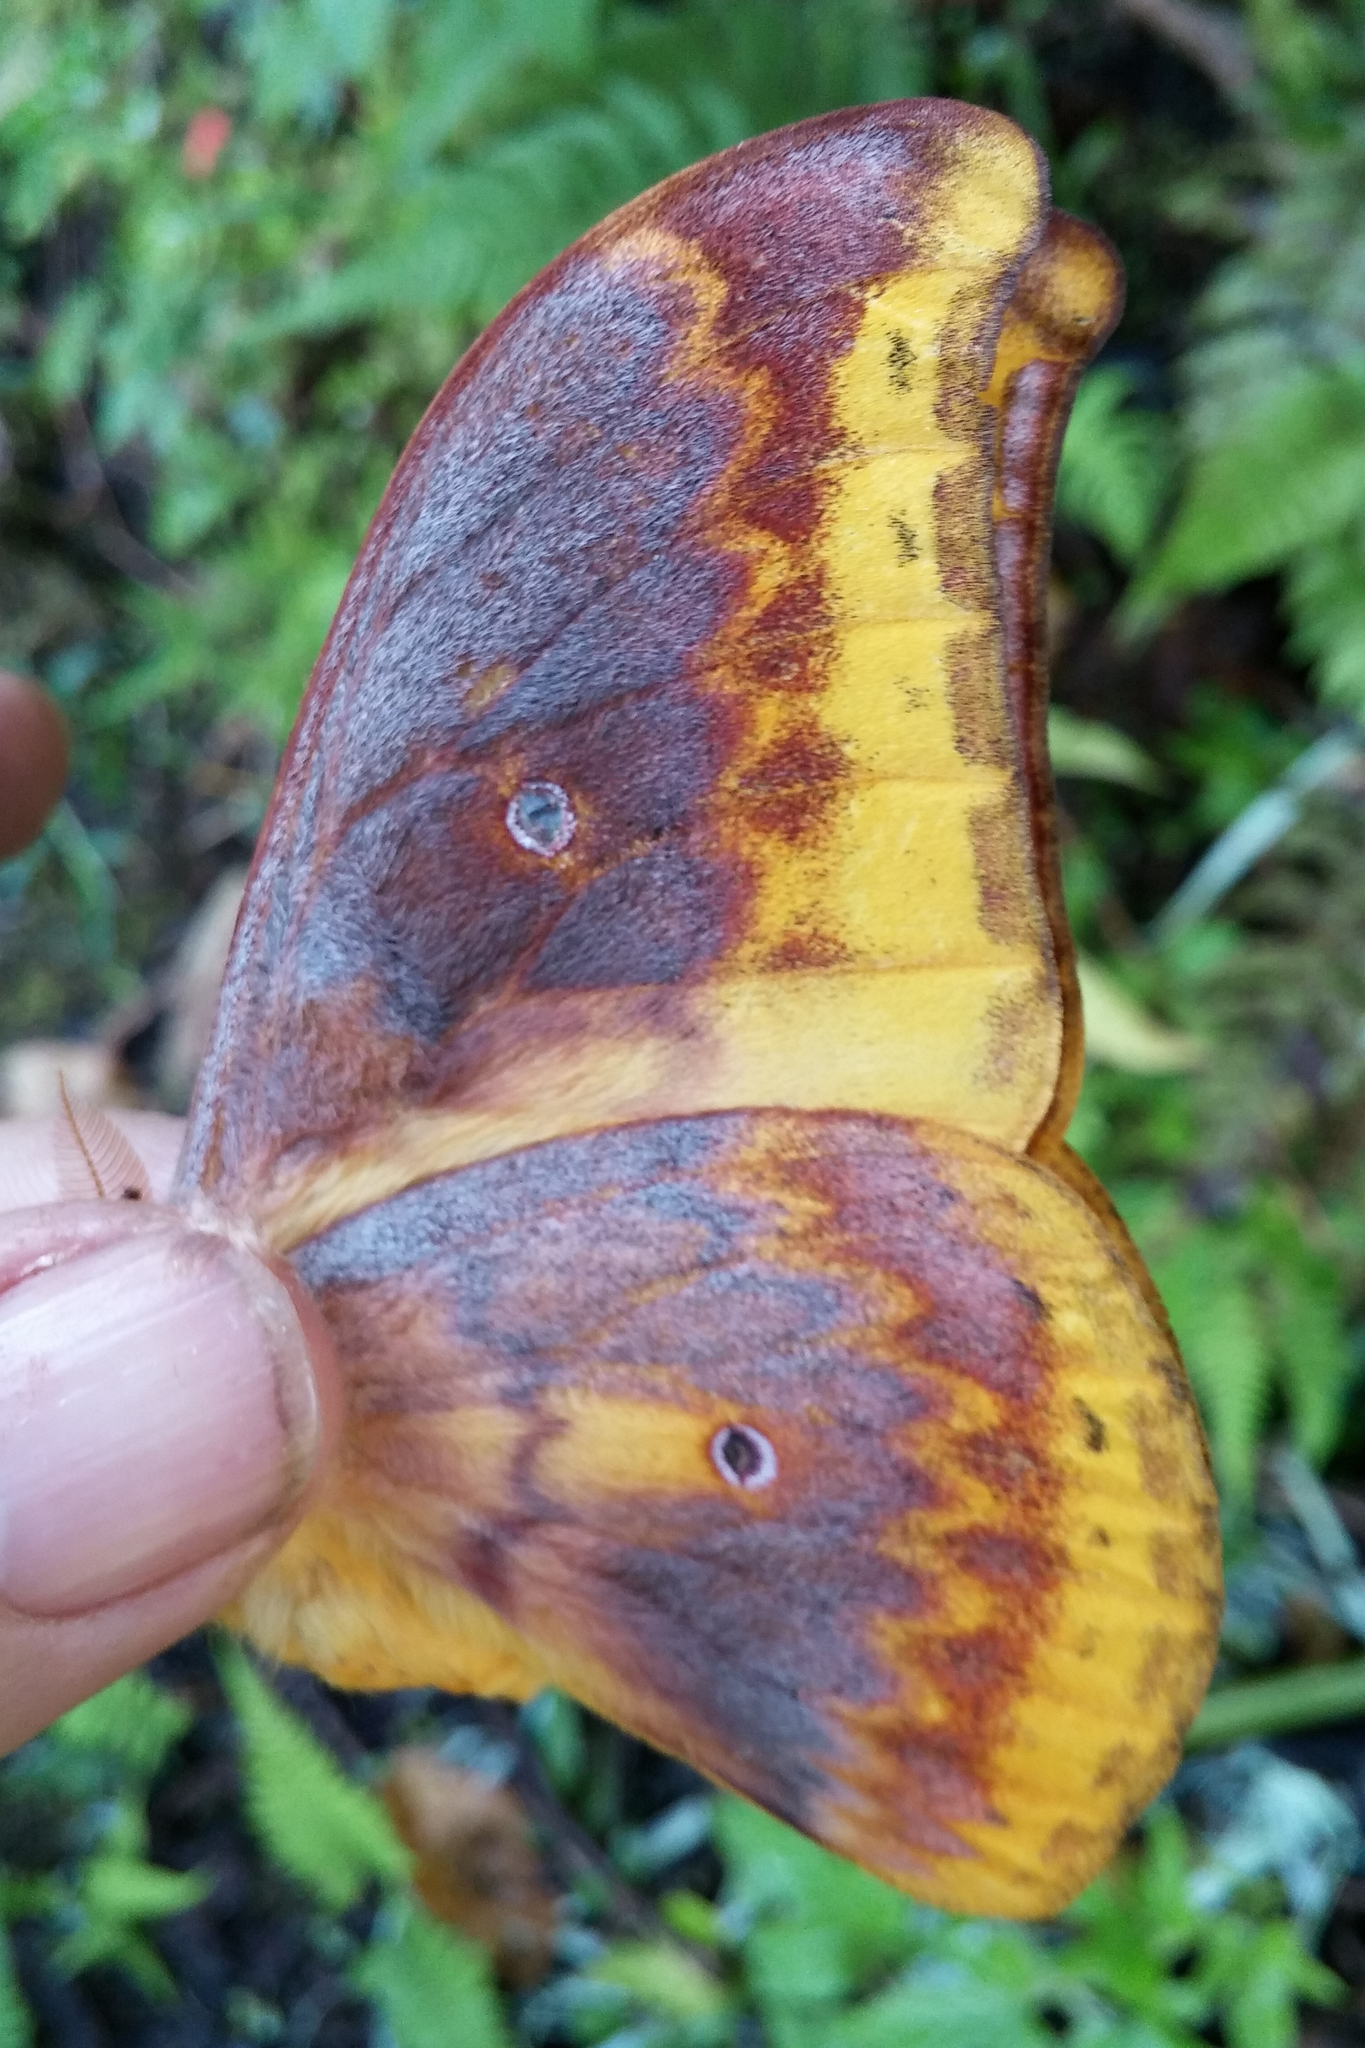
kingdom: Animalia
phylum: Arthropoda
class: Insecta
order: Lepidoptera
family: Saturniidae
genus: Syntherata
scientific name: Syntherata brunnea
